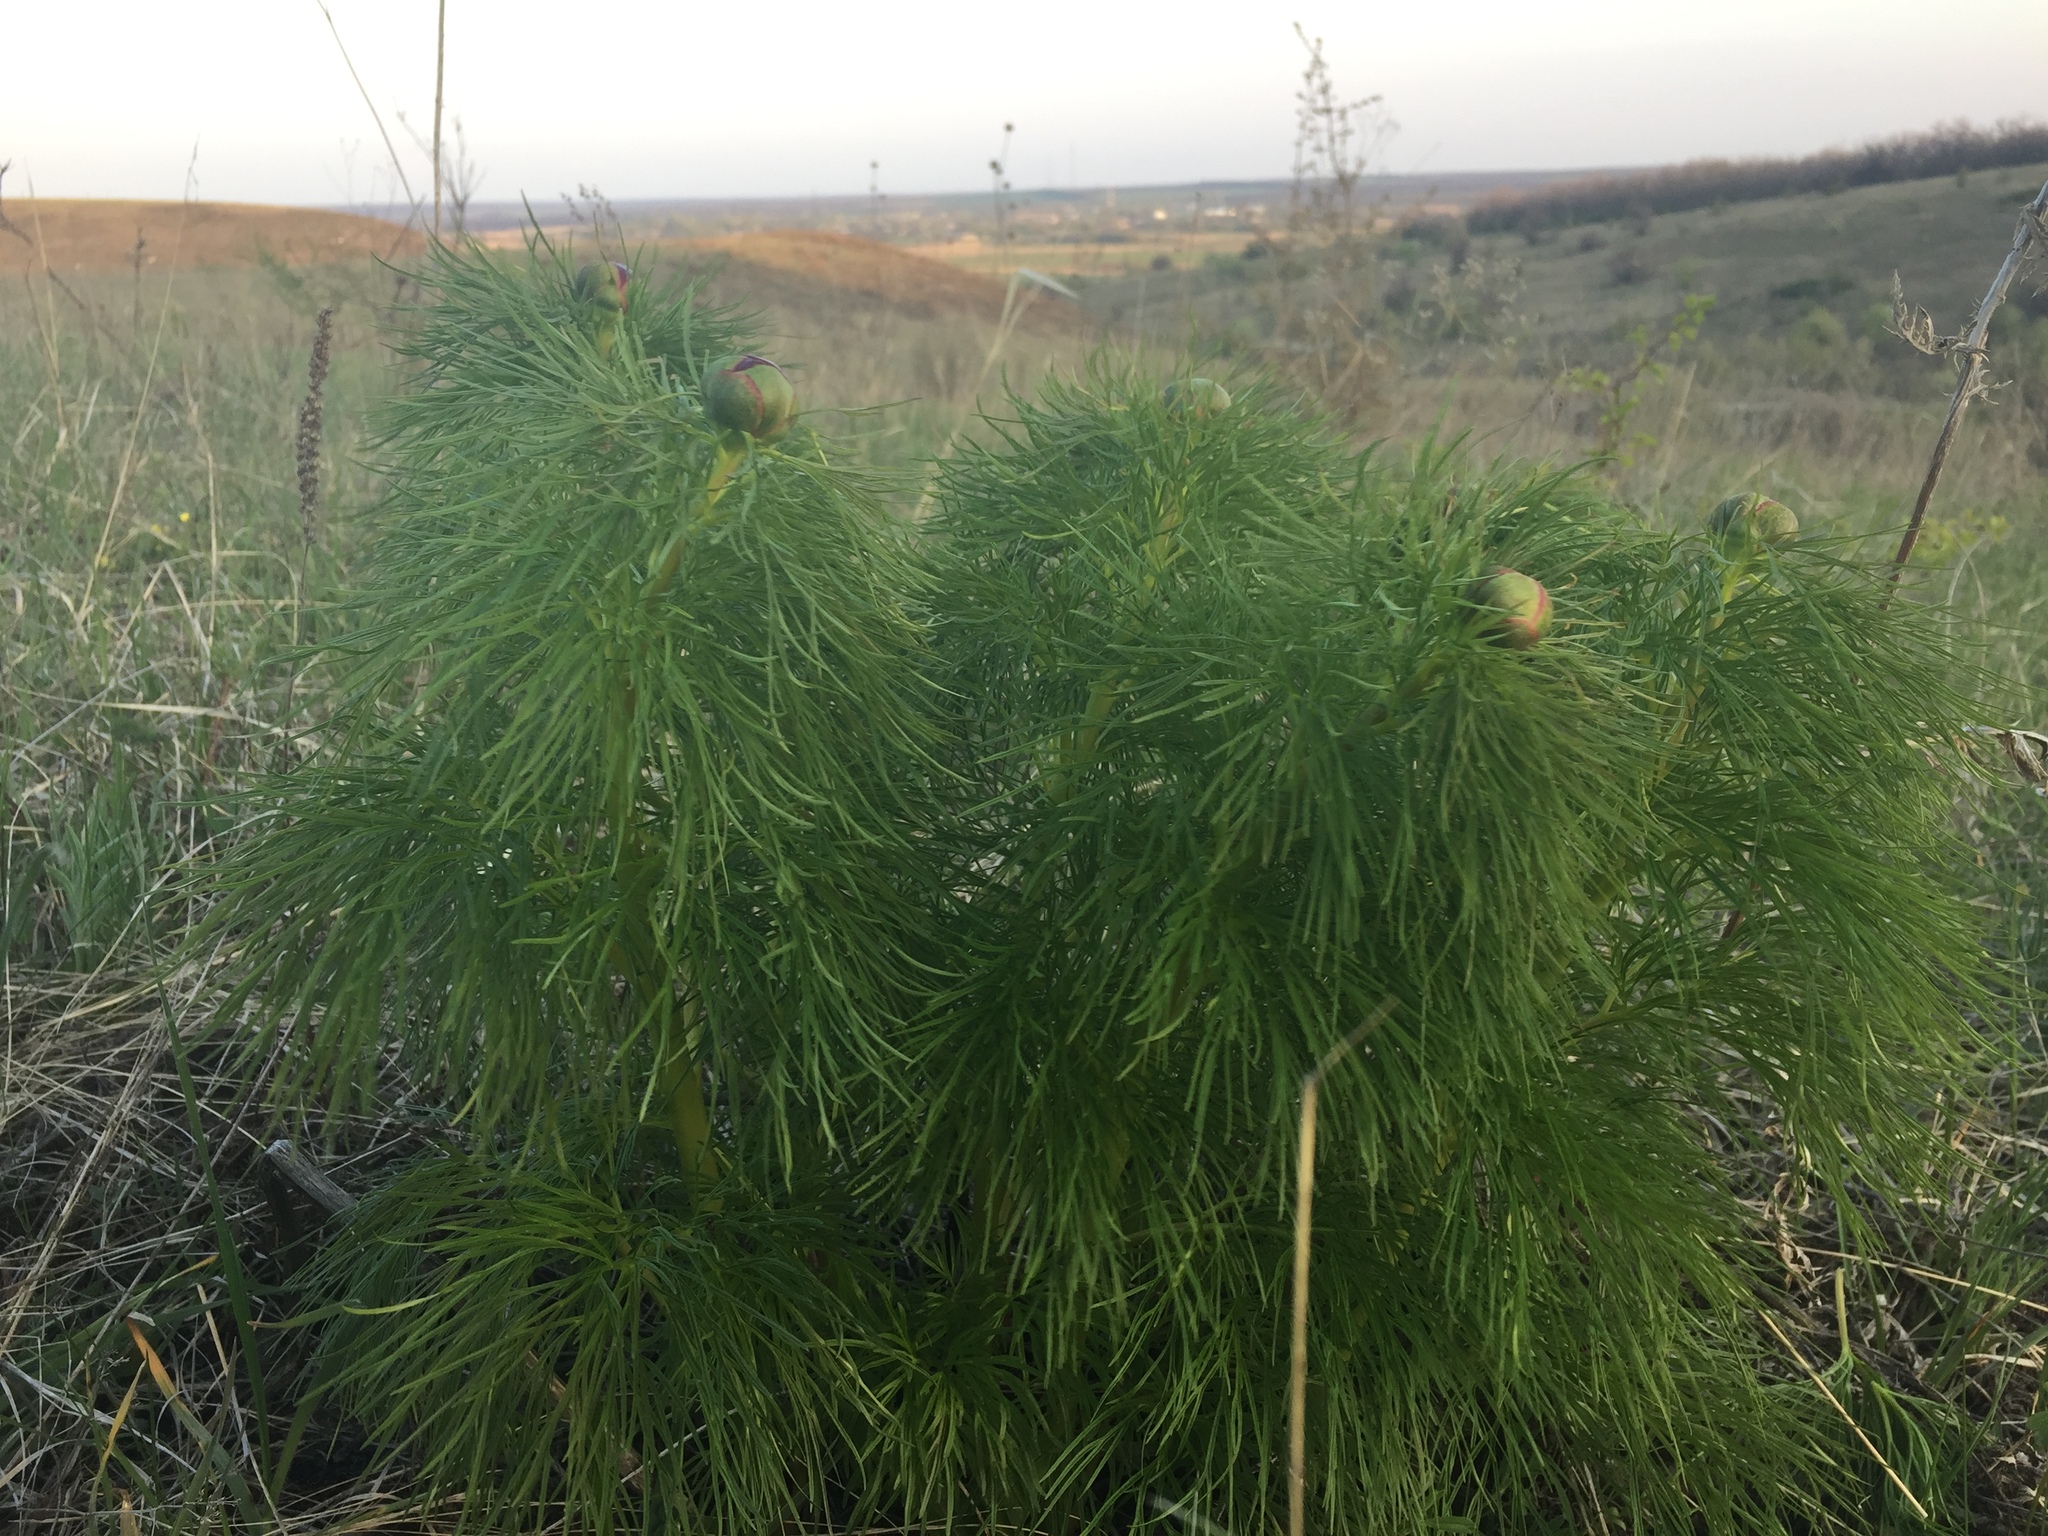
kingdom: Plantae
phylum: Tracheophyta
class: Magnoliopsida
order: Saxifragales
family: Paeoniaceae
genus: Paeonia
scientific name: Paeonia tenuifolia
